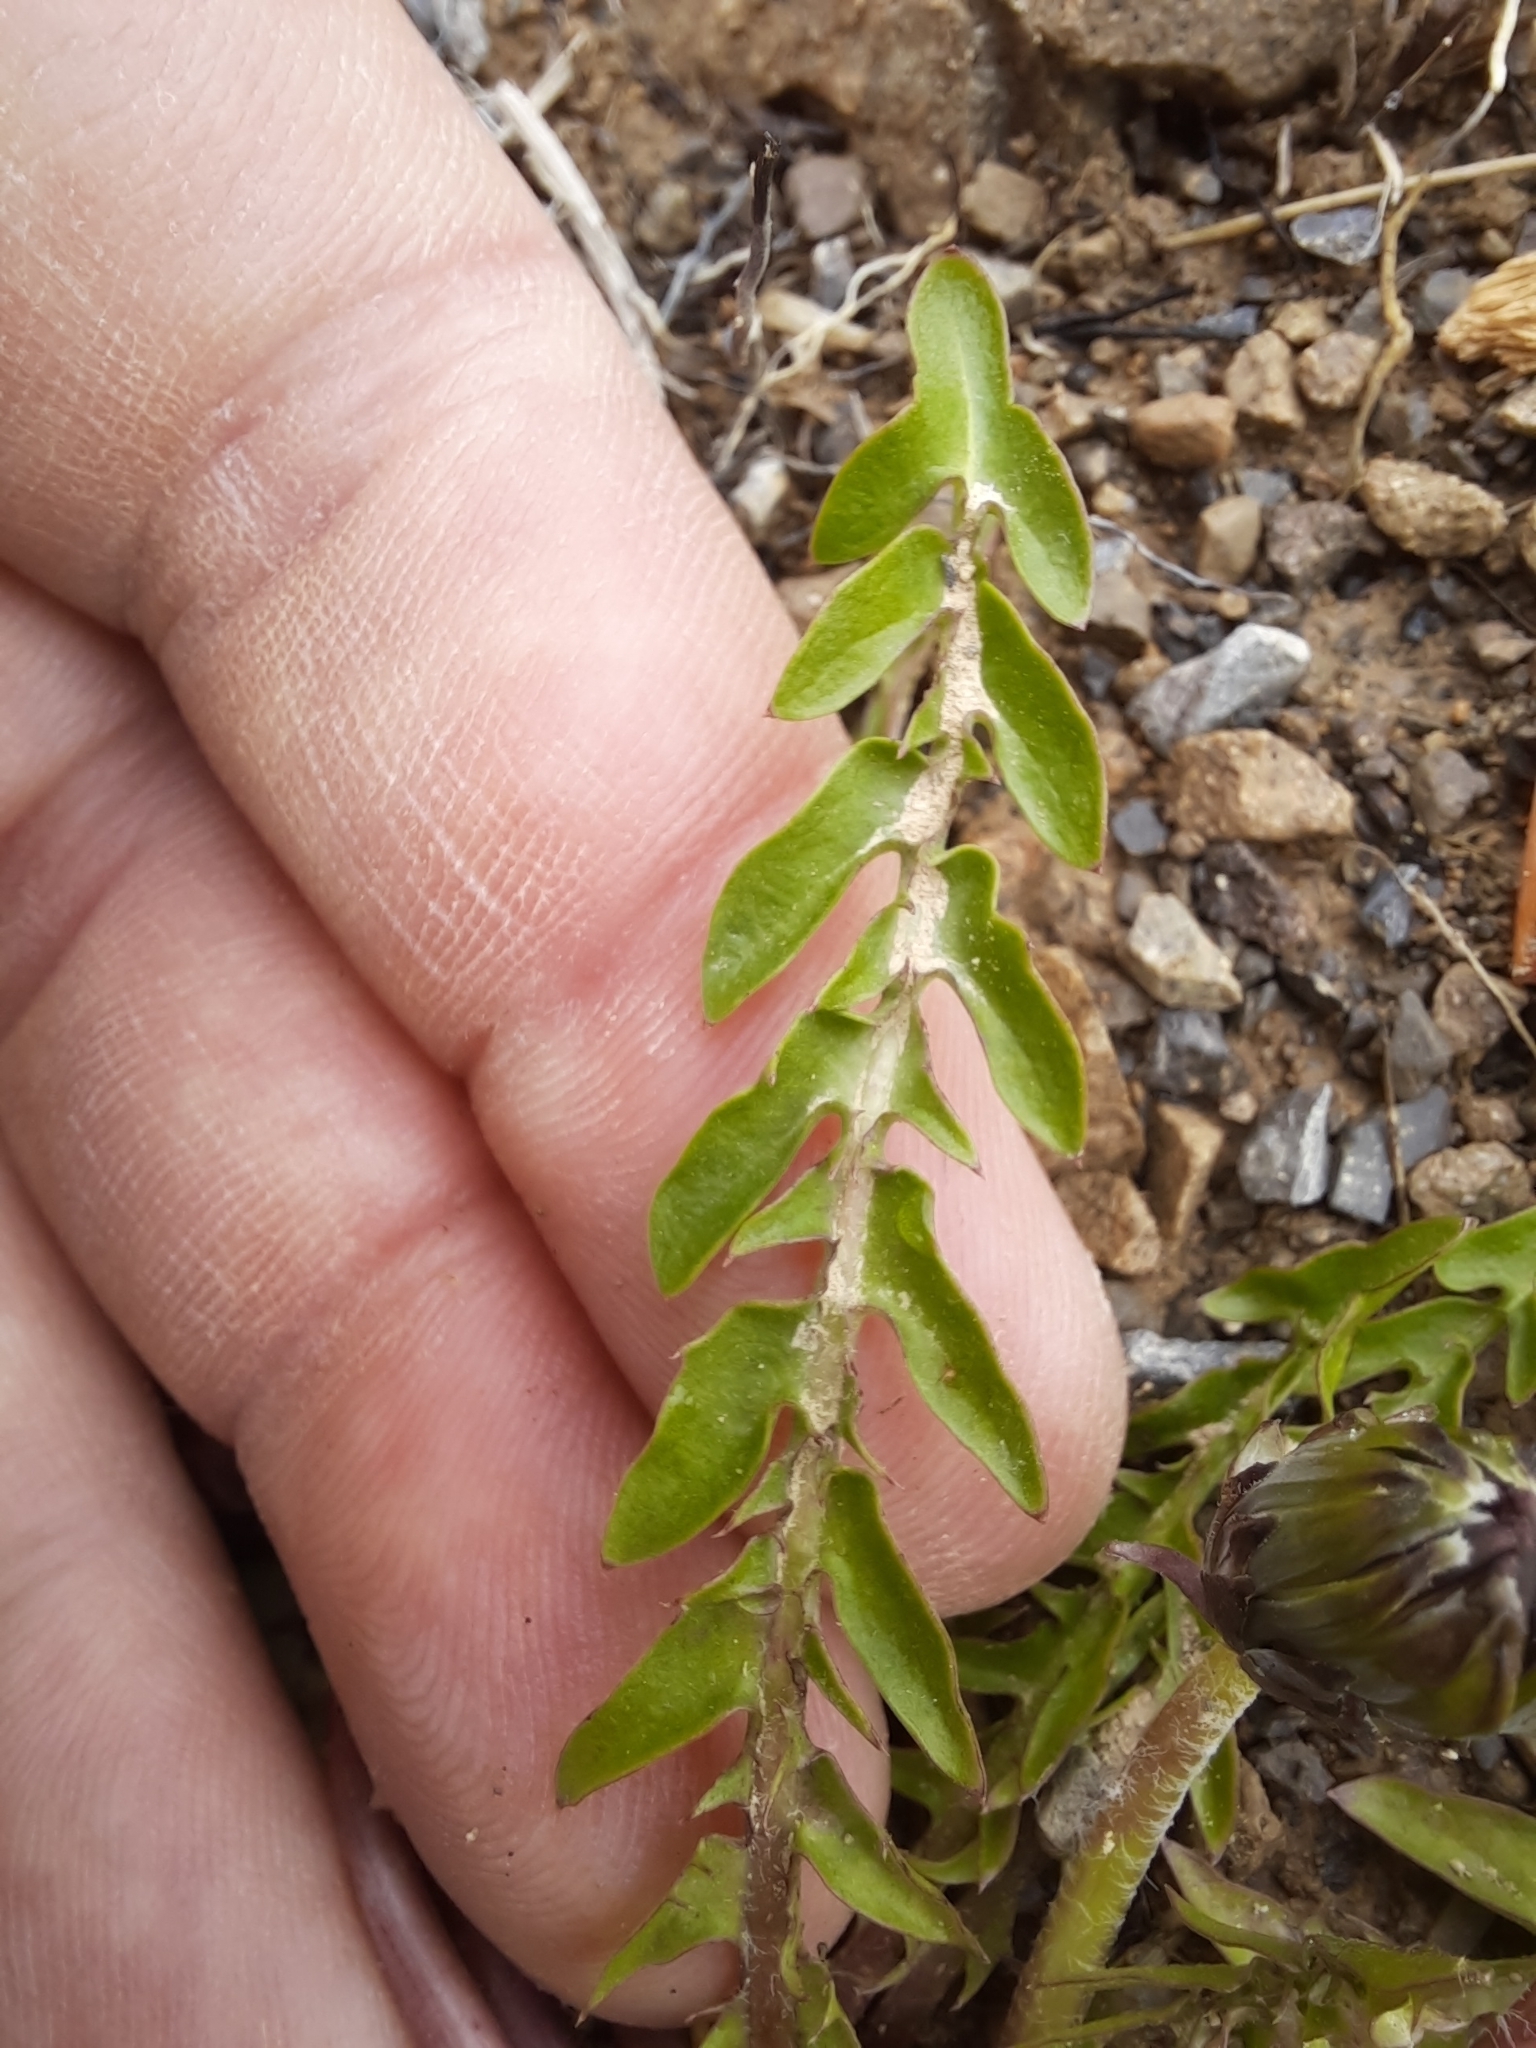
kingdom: Plantae
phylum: Tracheophyta
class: Magnoliopsida
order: Asterales
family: Asteraceae
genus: Taraxacum
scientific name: Taraxacum officinale
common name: Common dandelion
